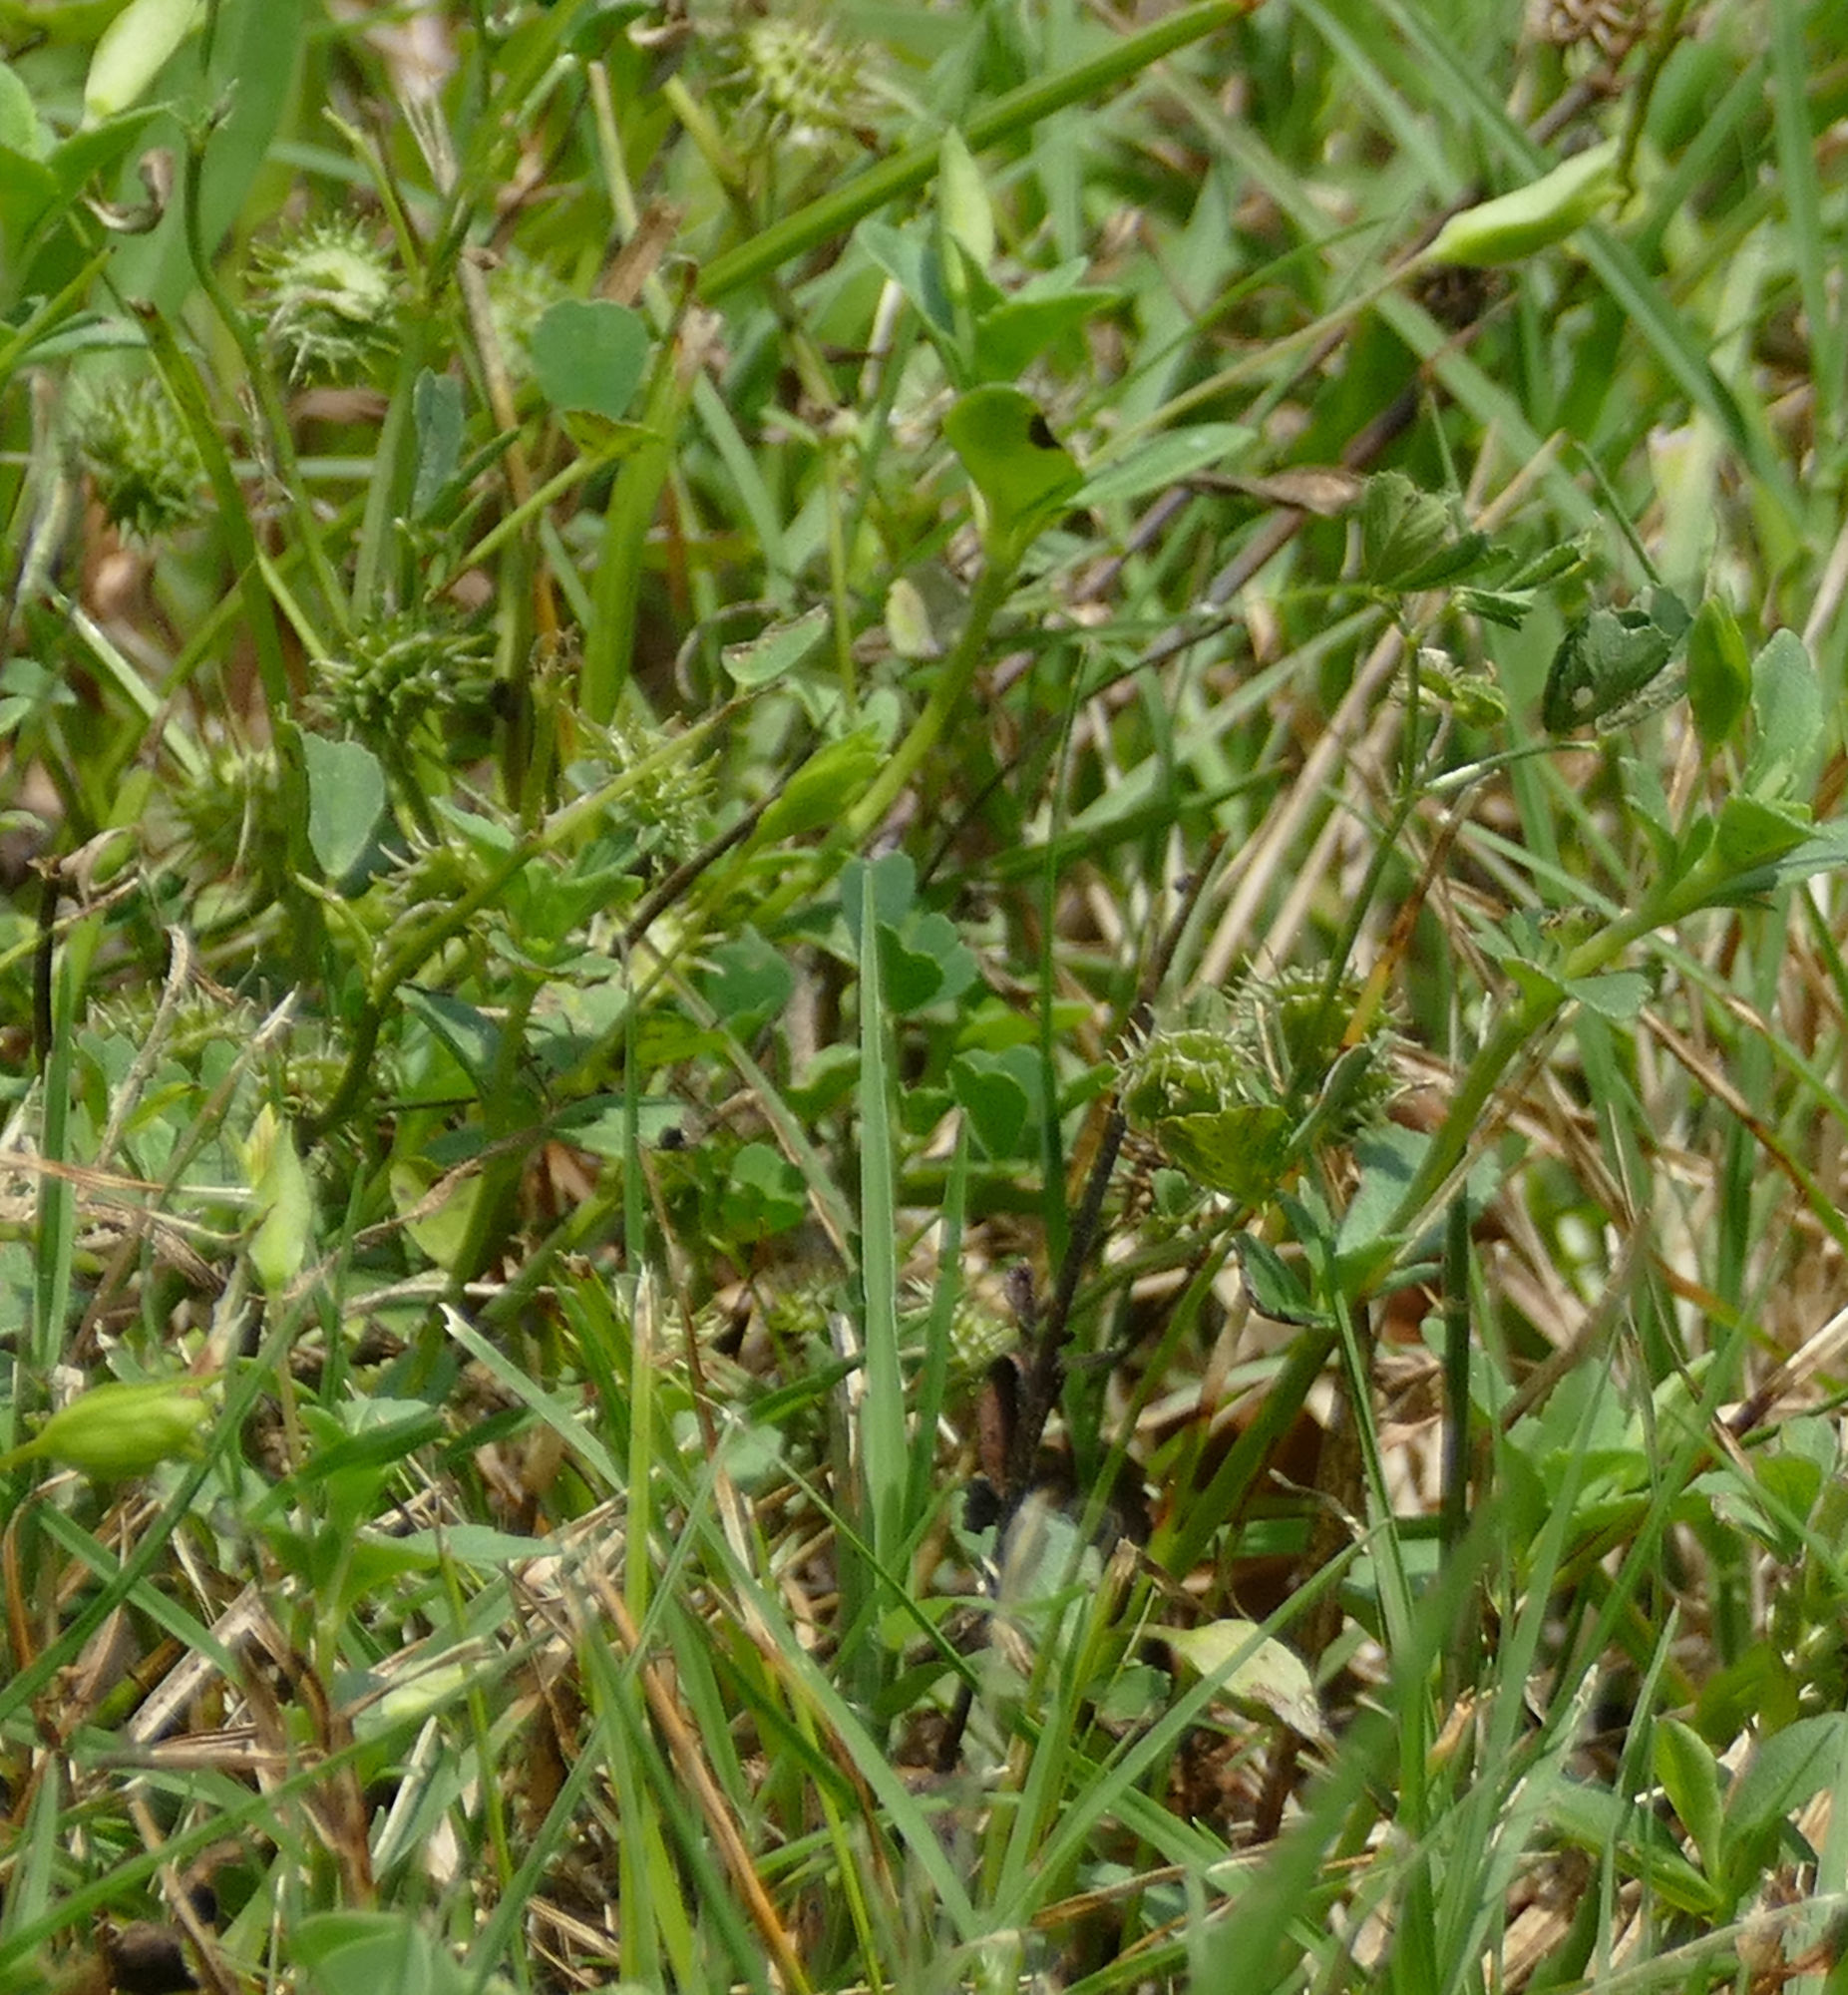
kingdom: Plantae
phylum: Tracheophyta
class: Magnoliopsida
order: Fabales
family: Fabaceae
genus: Medicago
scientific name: Medicago polymorpha
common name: Burclover
